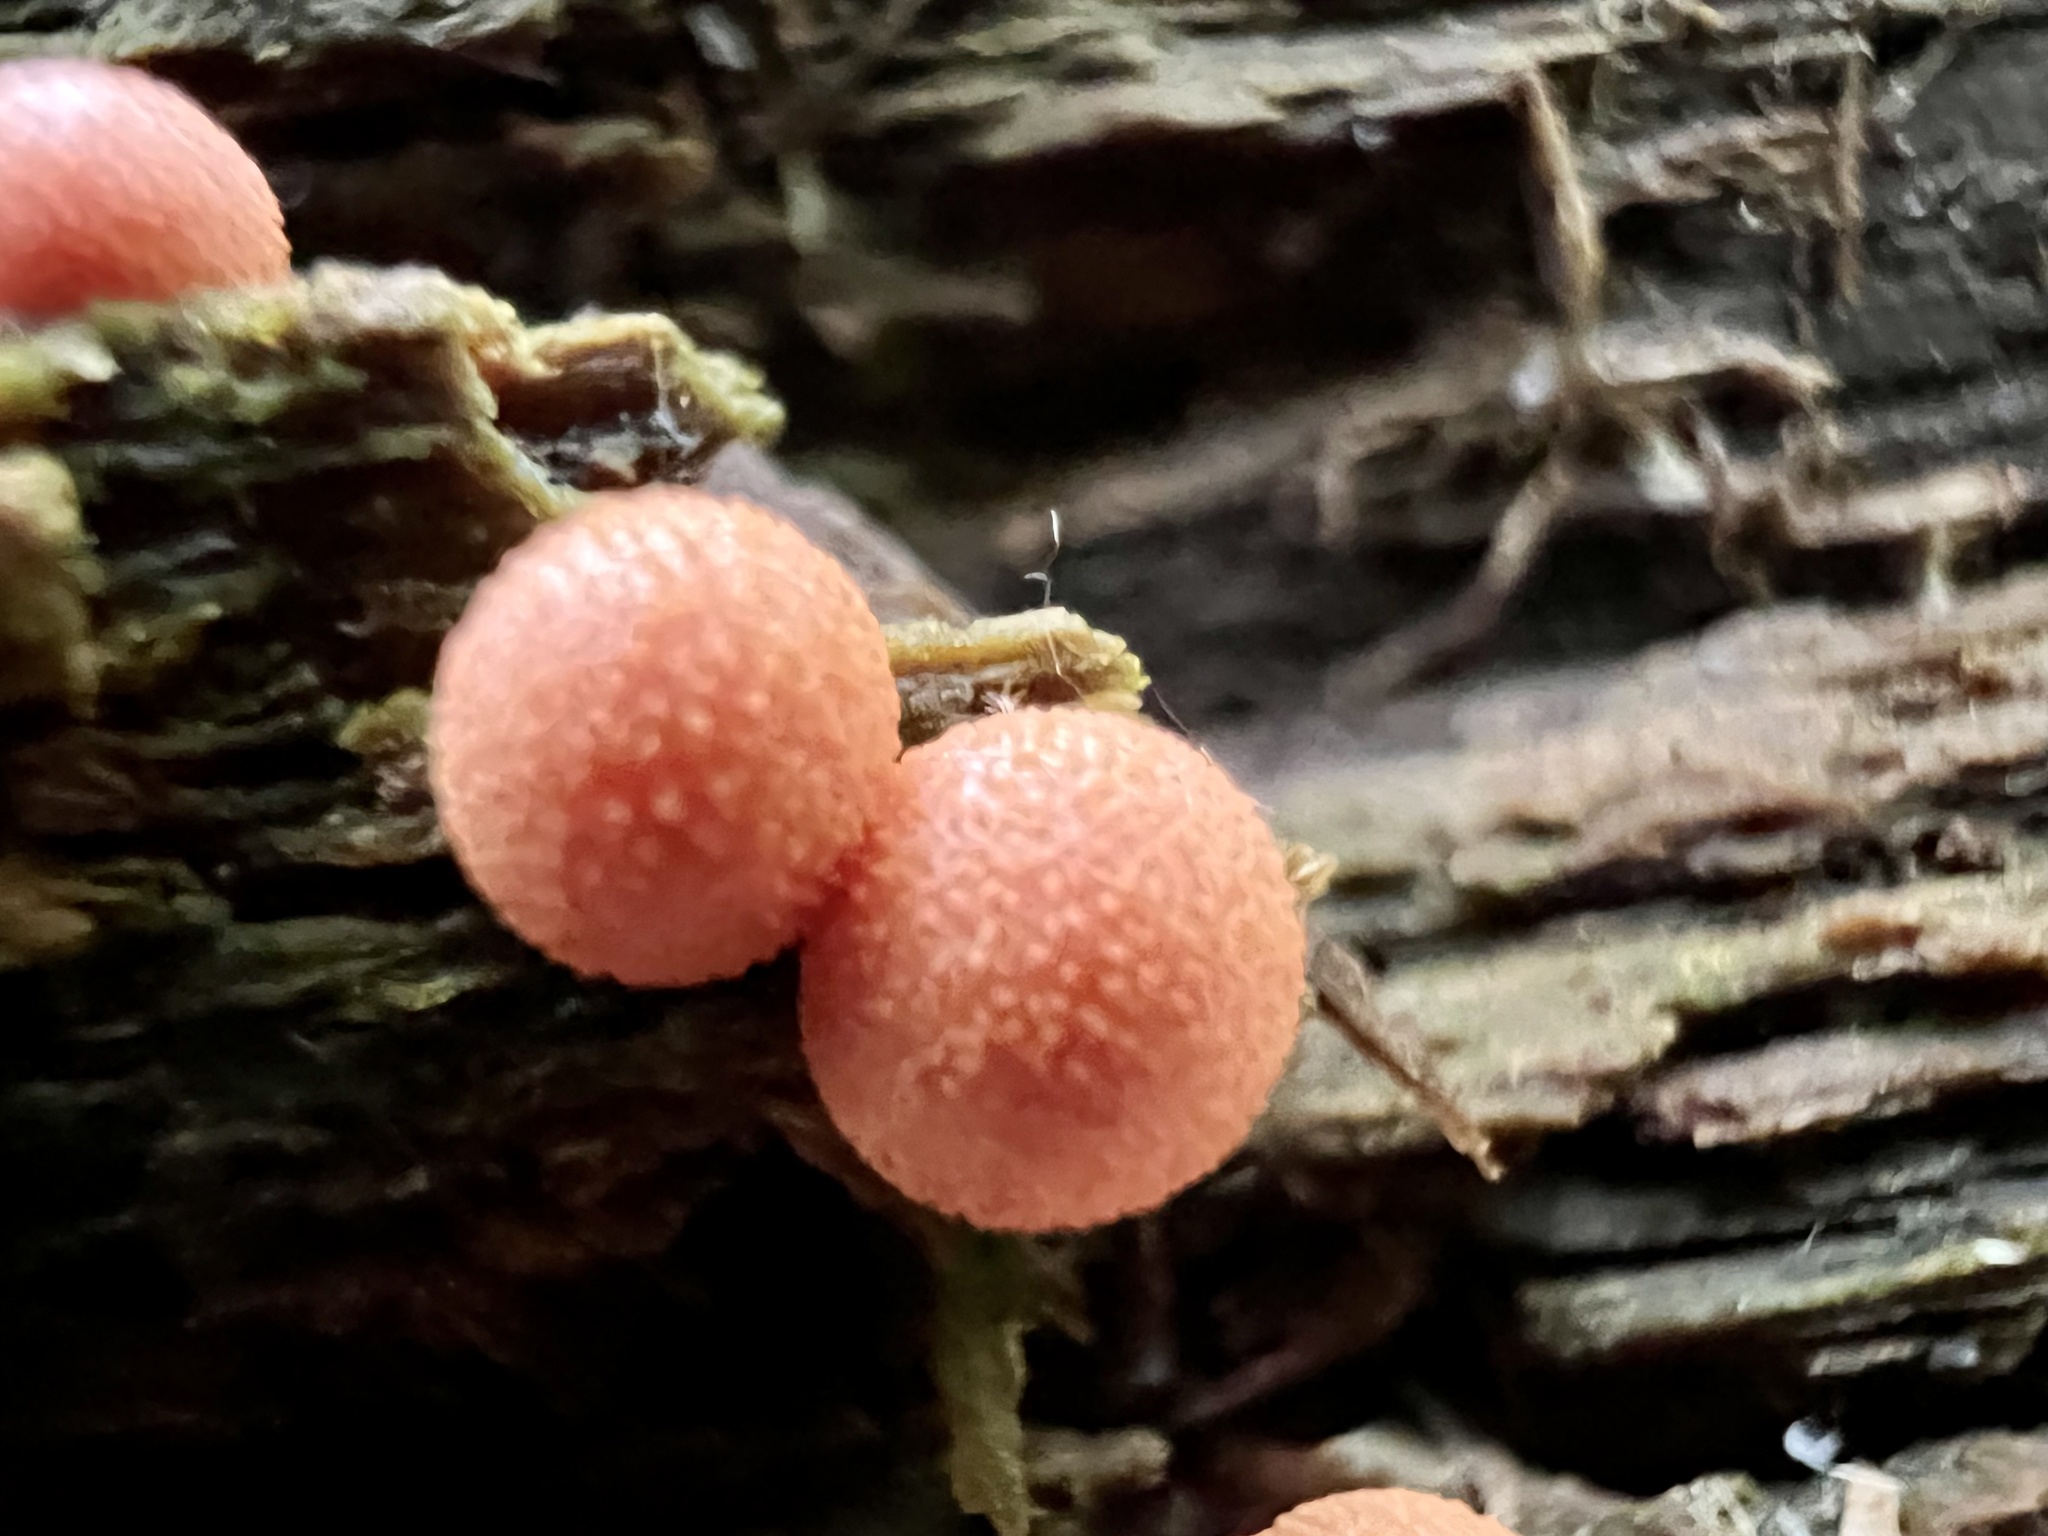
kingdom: Protozoa
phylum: Mycetozoa
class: Myxomycetes
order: Cribrariales
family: Tubiferaceae
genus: Lycogala
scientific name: Lycogala epidendrum
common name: Wolf's milk
